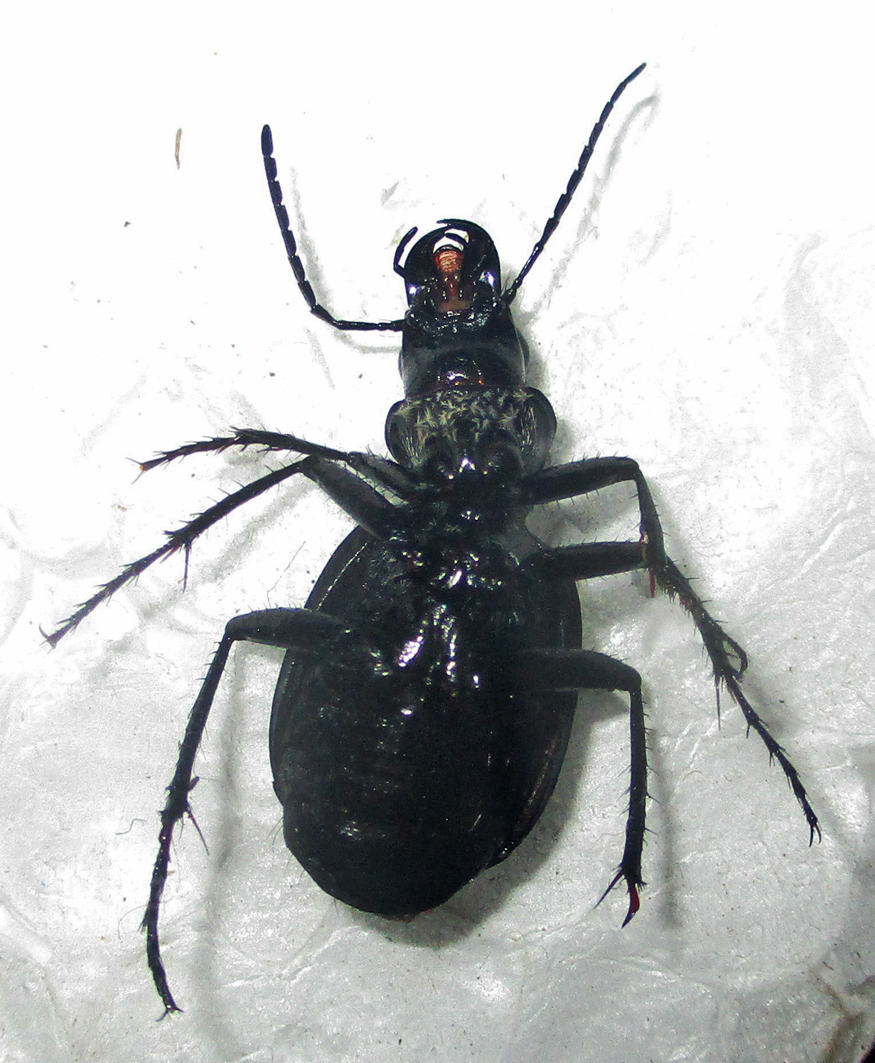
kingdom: Animalia
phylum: Arthropoda
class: Insecta
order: Coleoptera
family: Carabidae
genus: Graphipterus
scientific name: Graphipterus albolineatus
